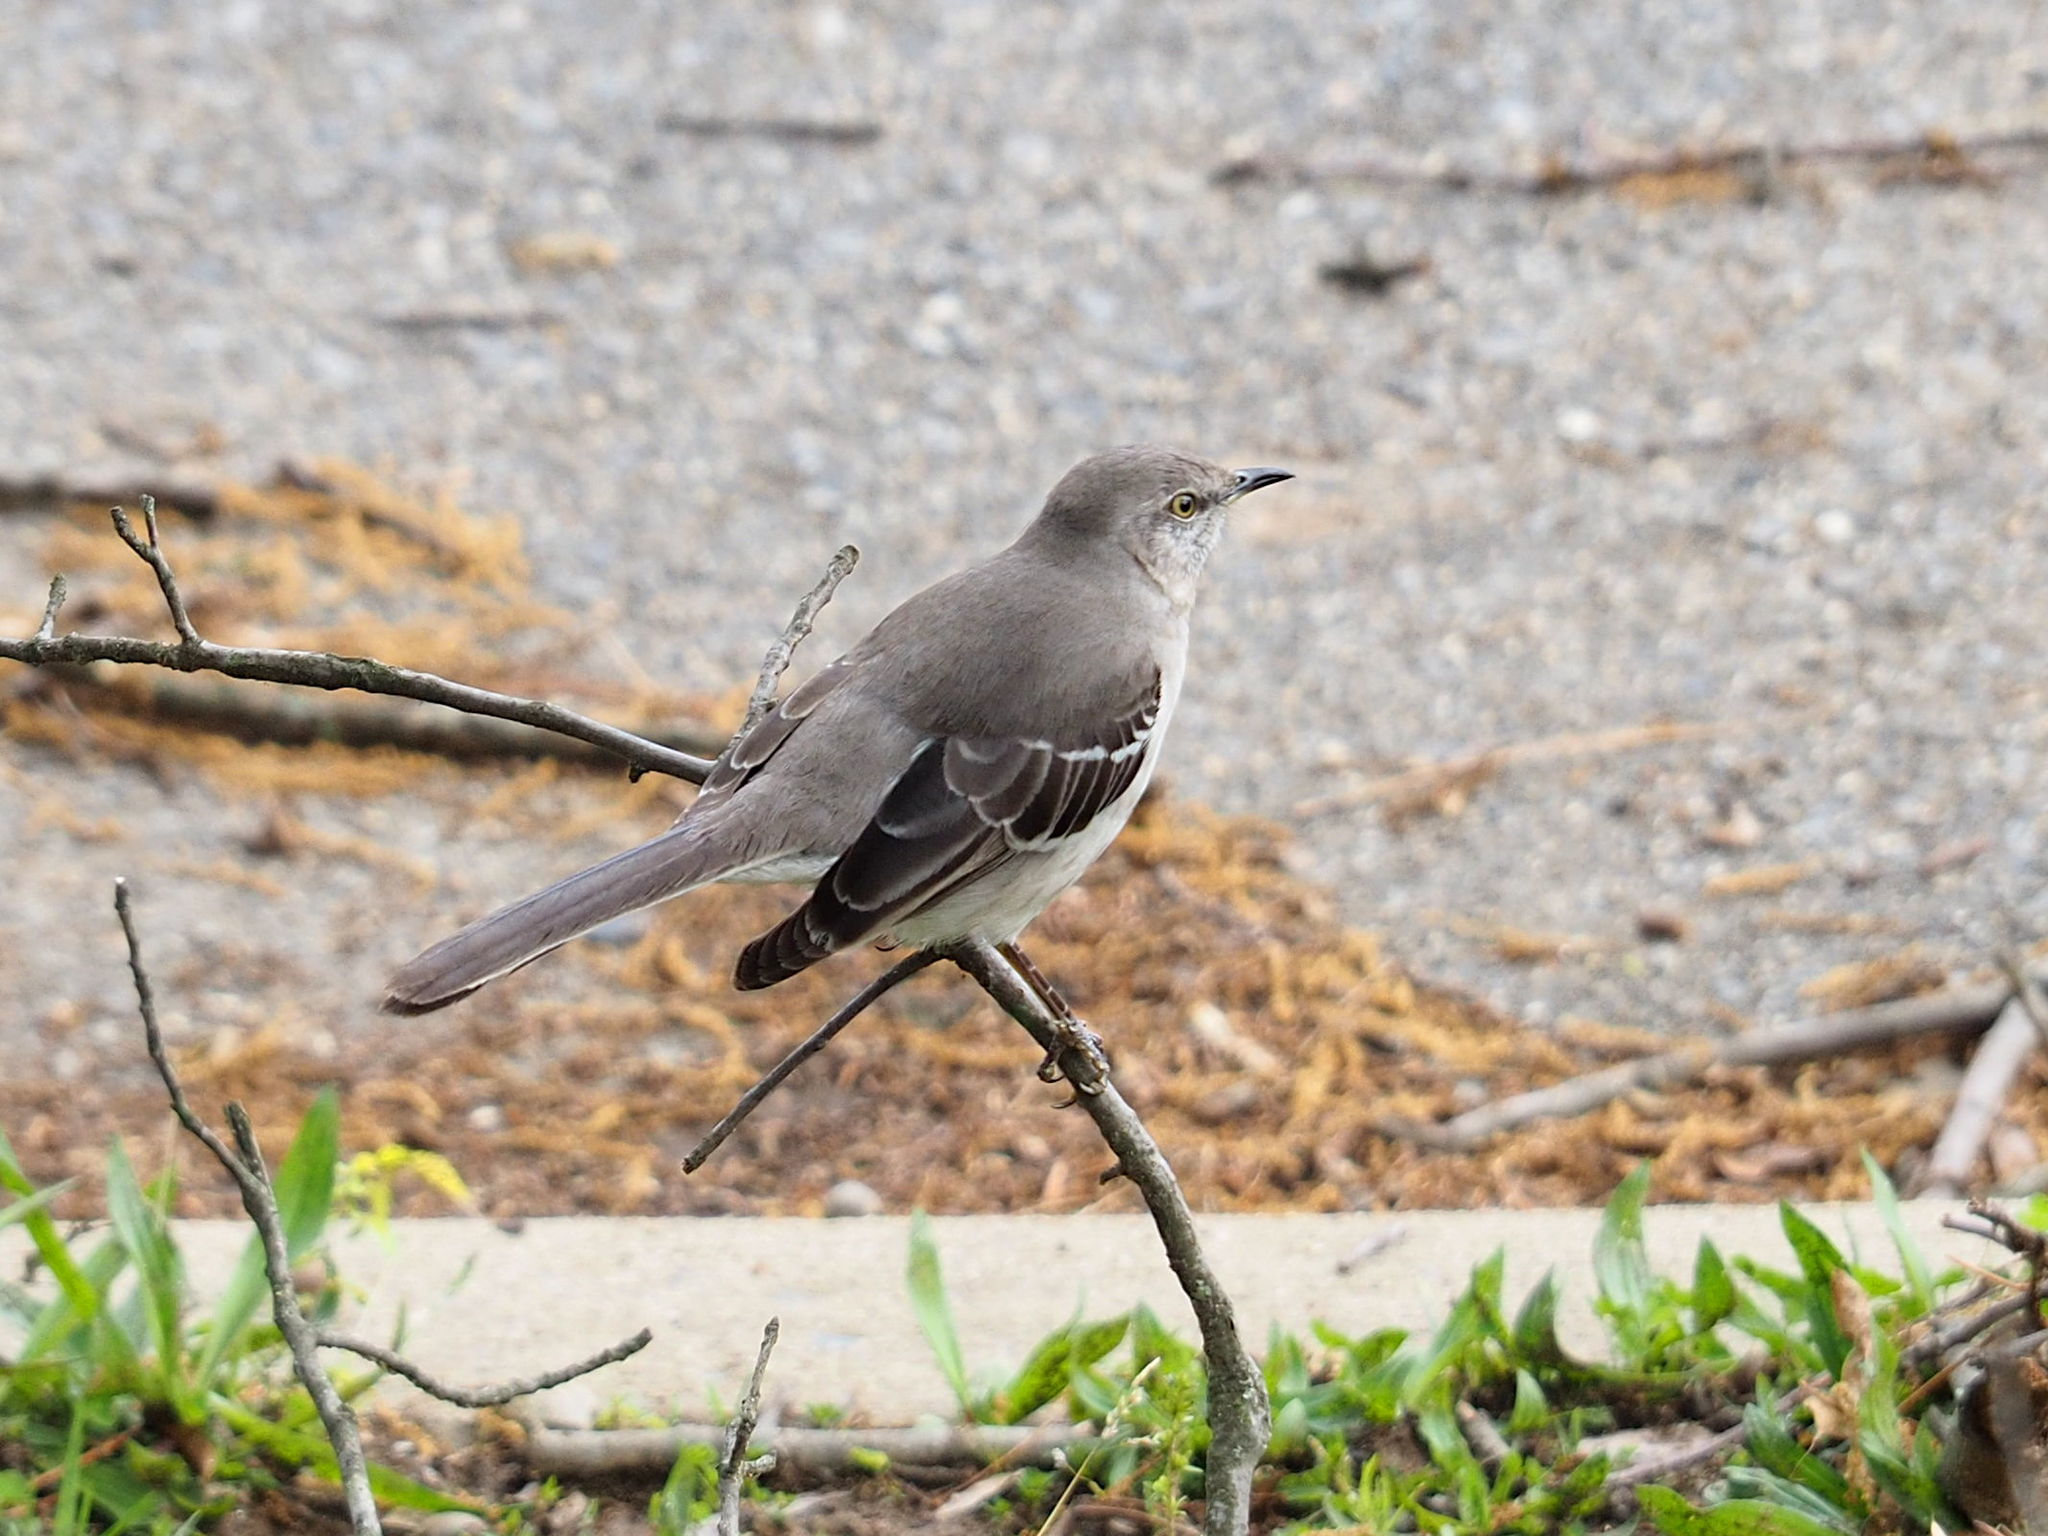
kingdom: Animalia
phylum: Chordata
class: Aves
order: Passeriformes
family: Mimidae
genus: Mimus
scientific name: Mimus polyglottos
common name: Northern mockingbird
